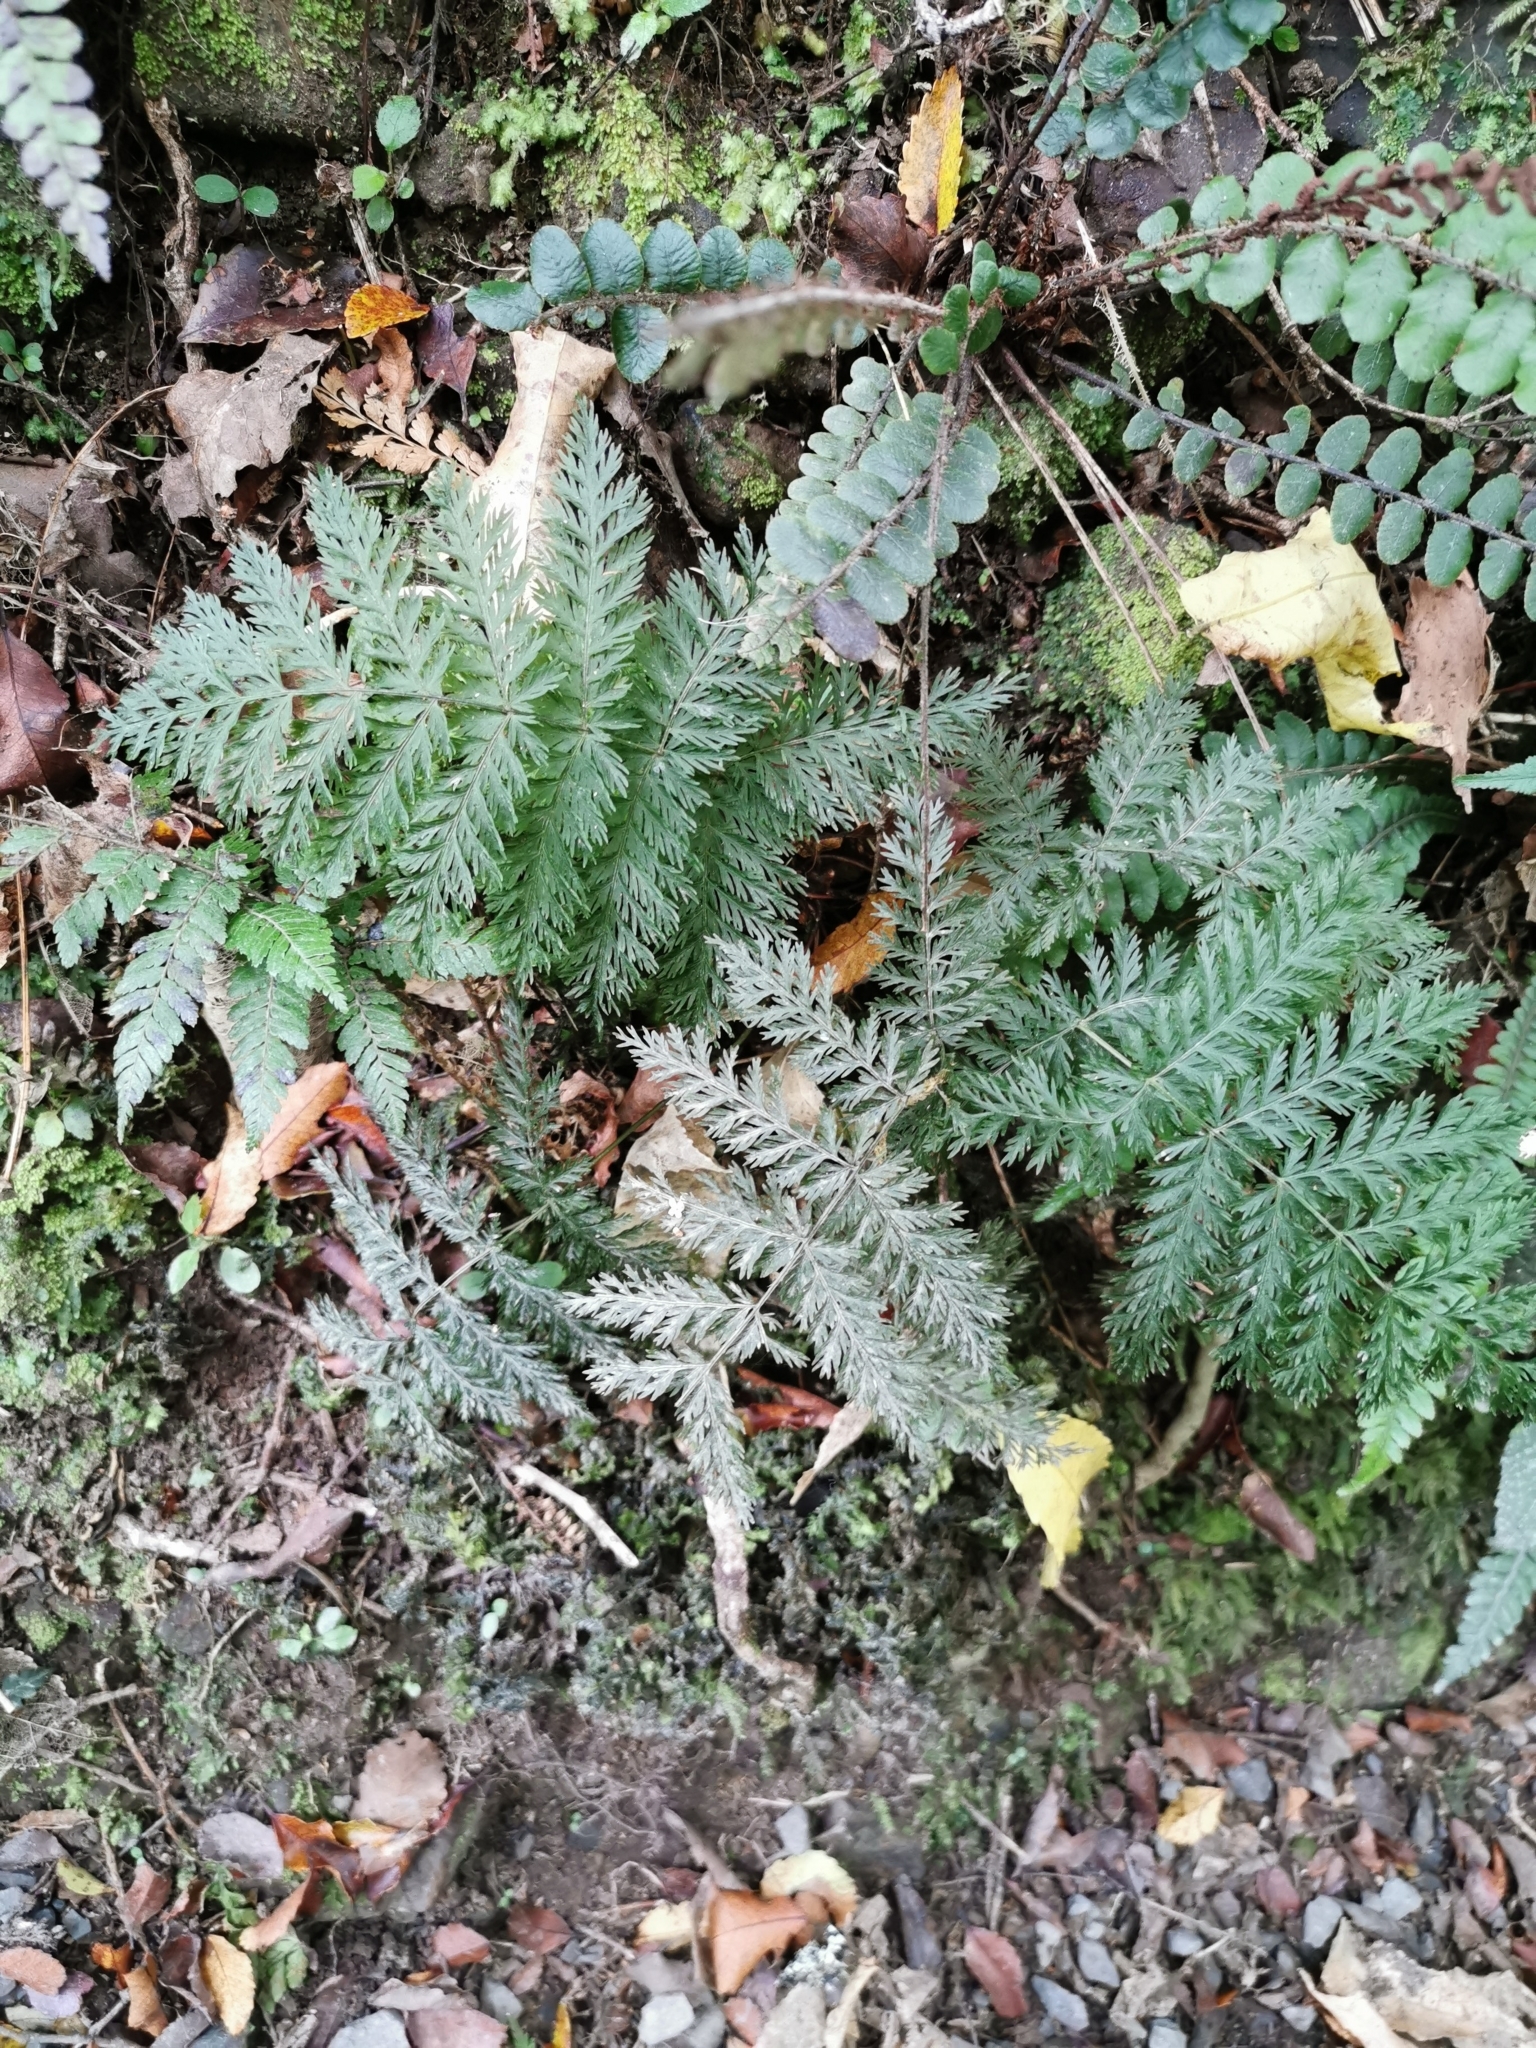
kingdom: Plantae
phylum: Tracheophyta
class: Polypodiopsida
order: Osmundales
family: Osmundaceae
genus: Leptopteris
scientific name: Leptopteris hymenophylloides
